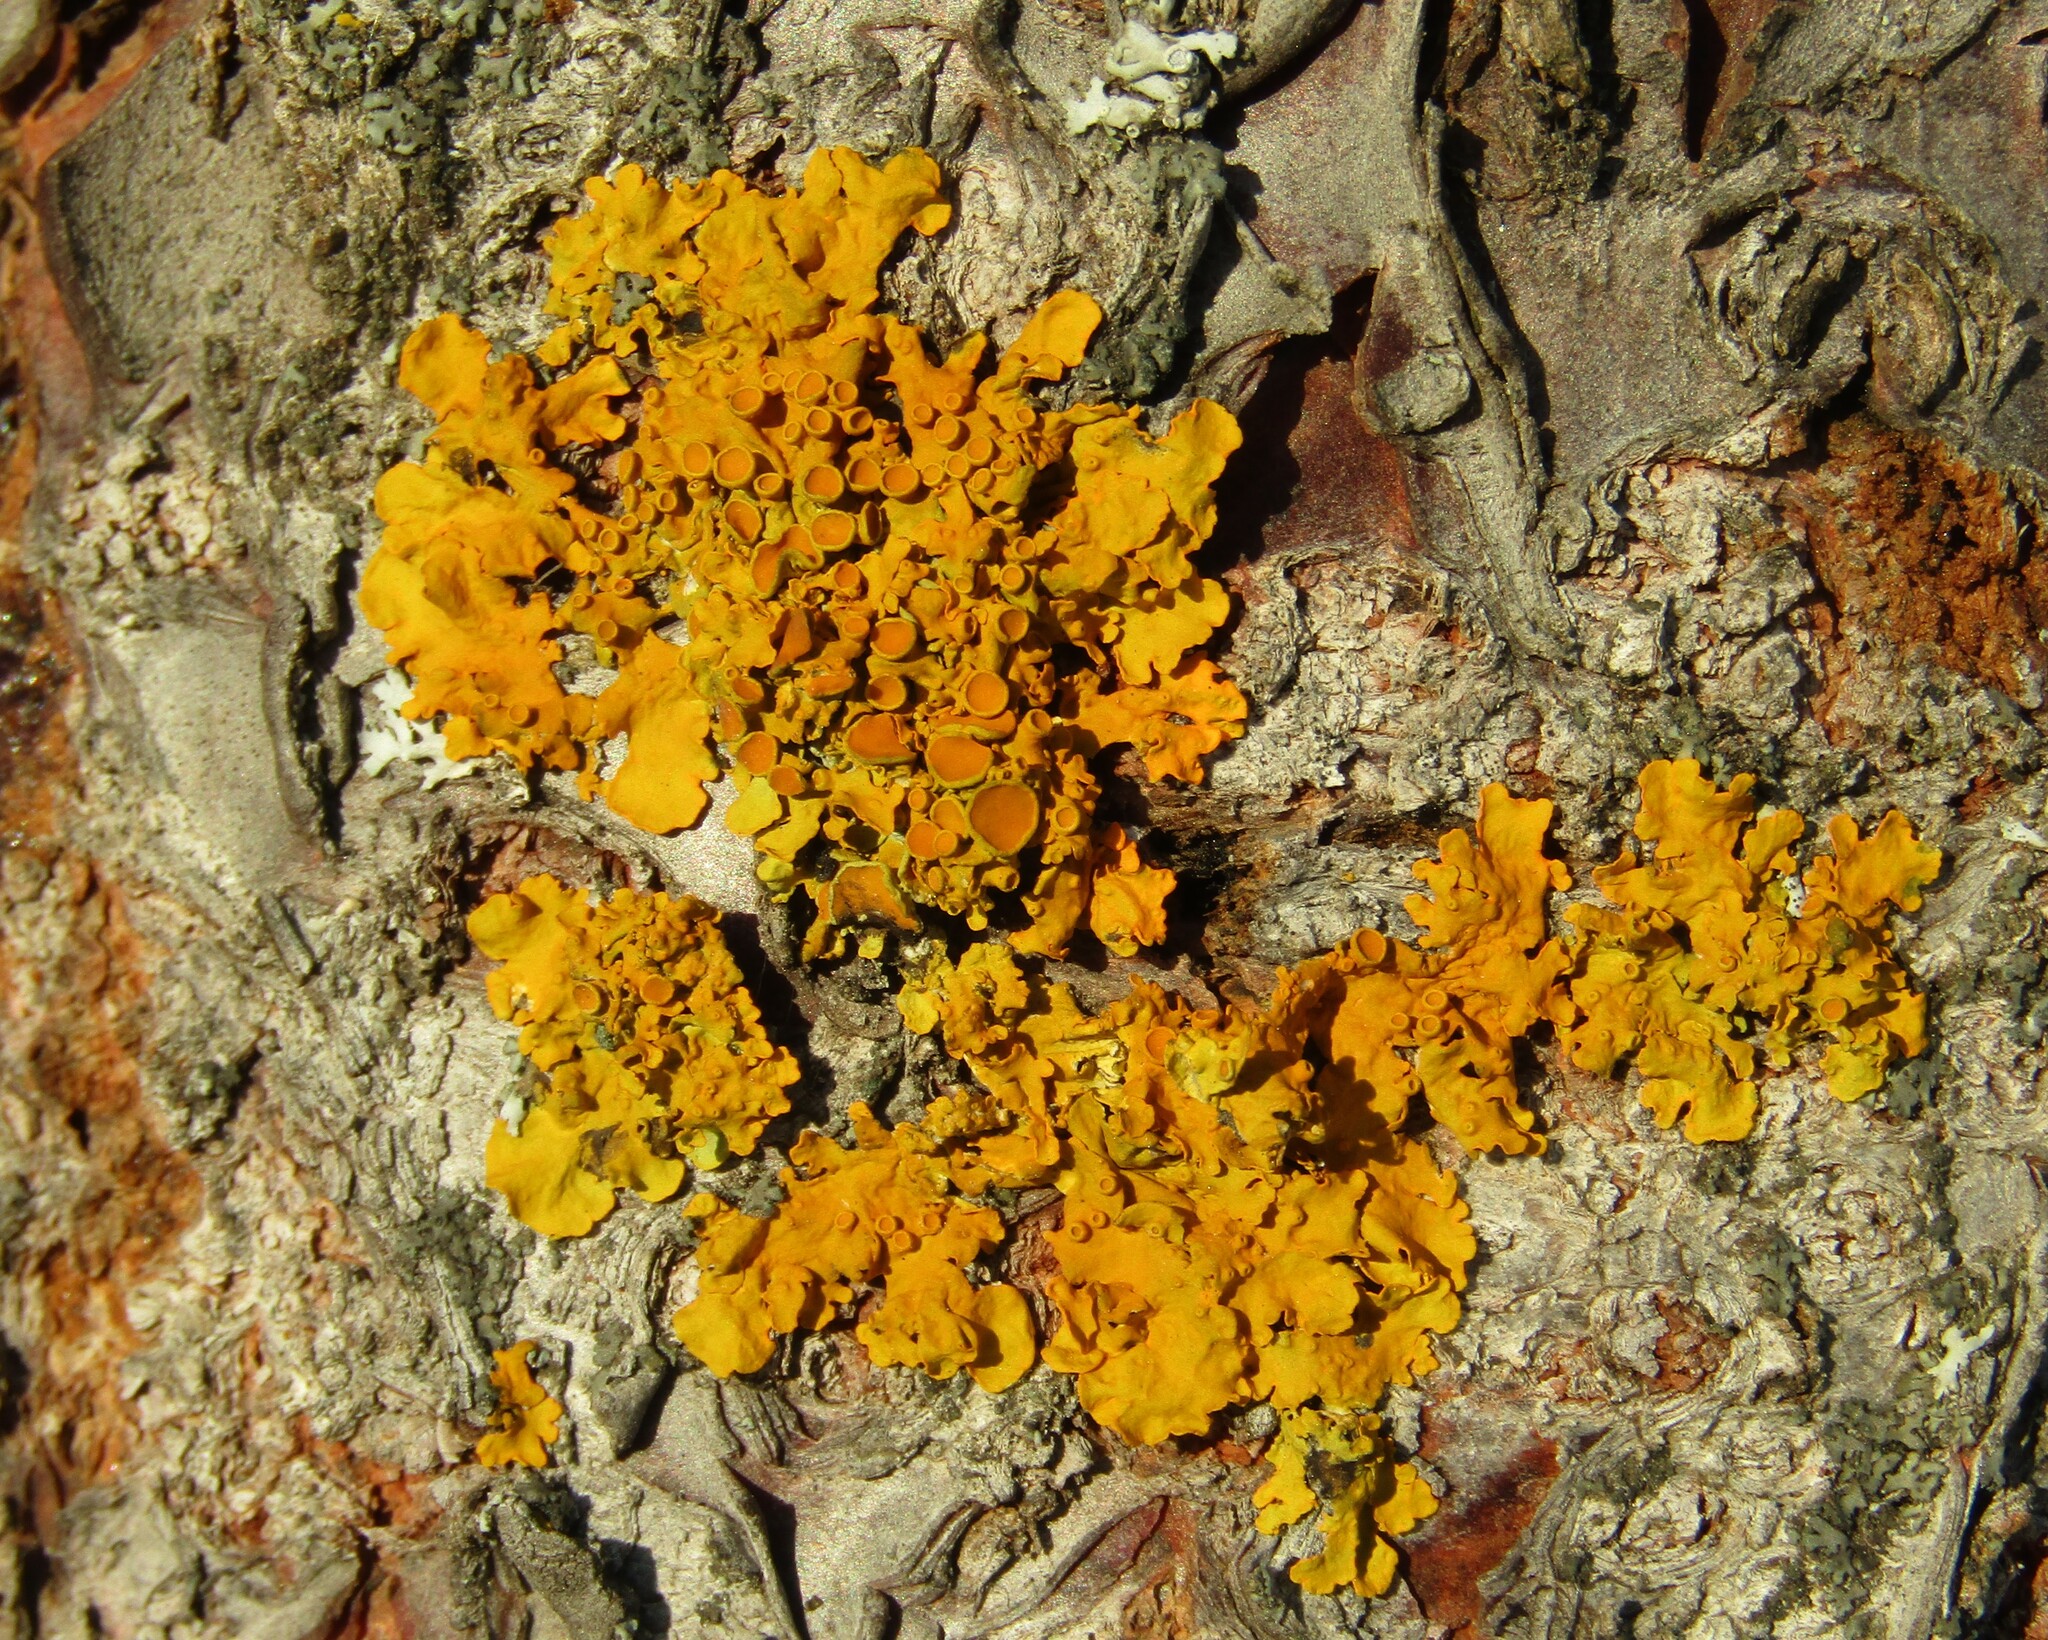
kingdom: Fungi
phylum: Ascomycota
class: Lecanoromycetes
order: Teloschistales
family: Teloschistaceae
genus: Xanthoria
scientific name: Xanthoria parietina
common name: Common orange lichen
